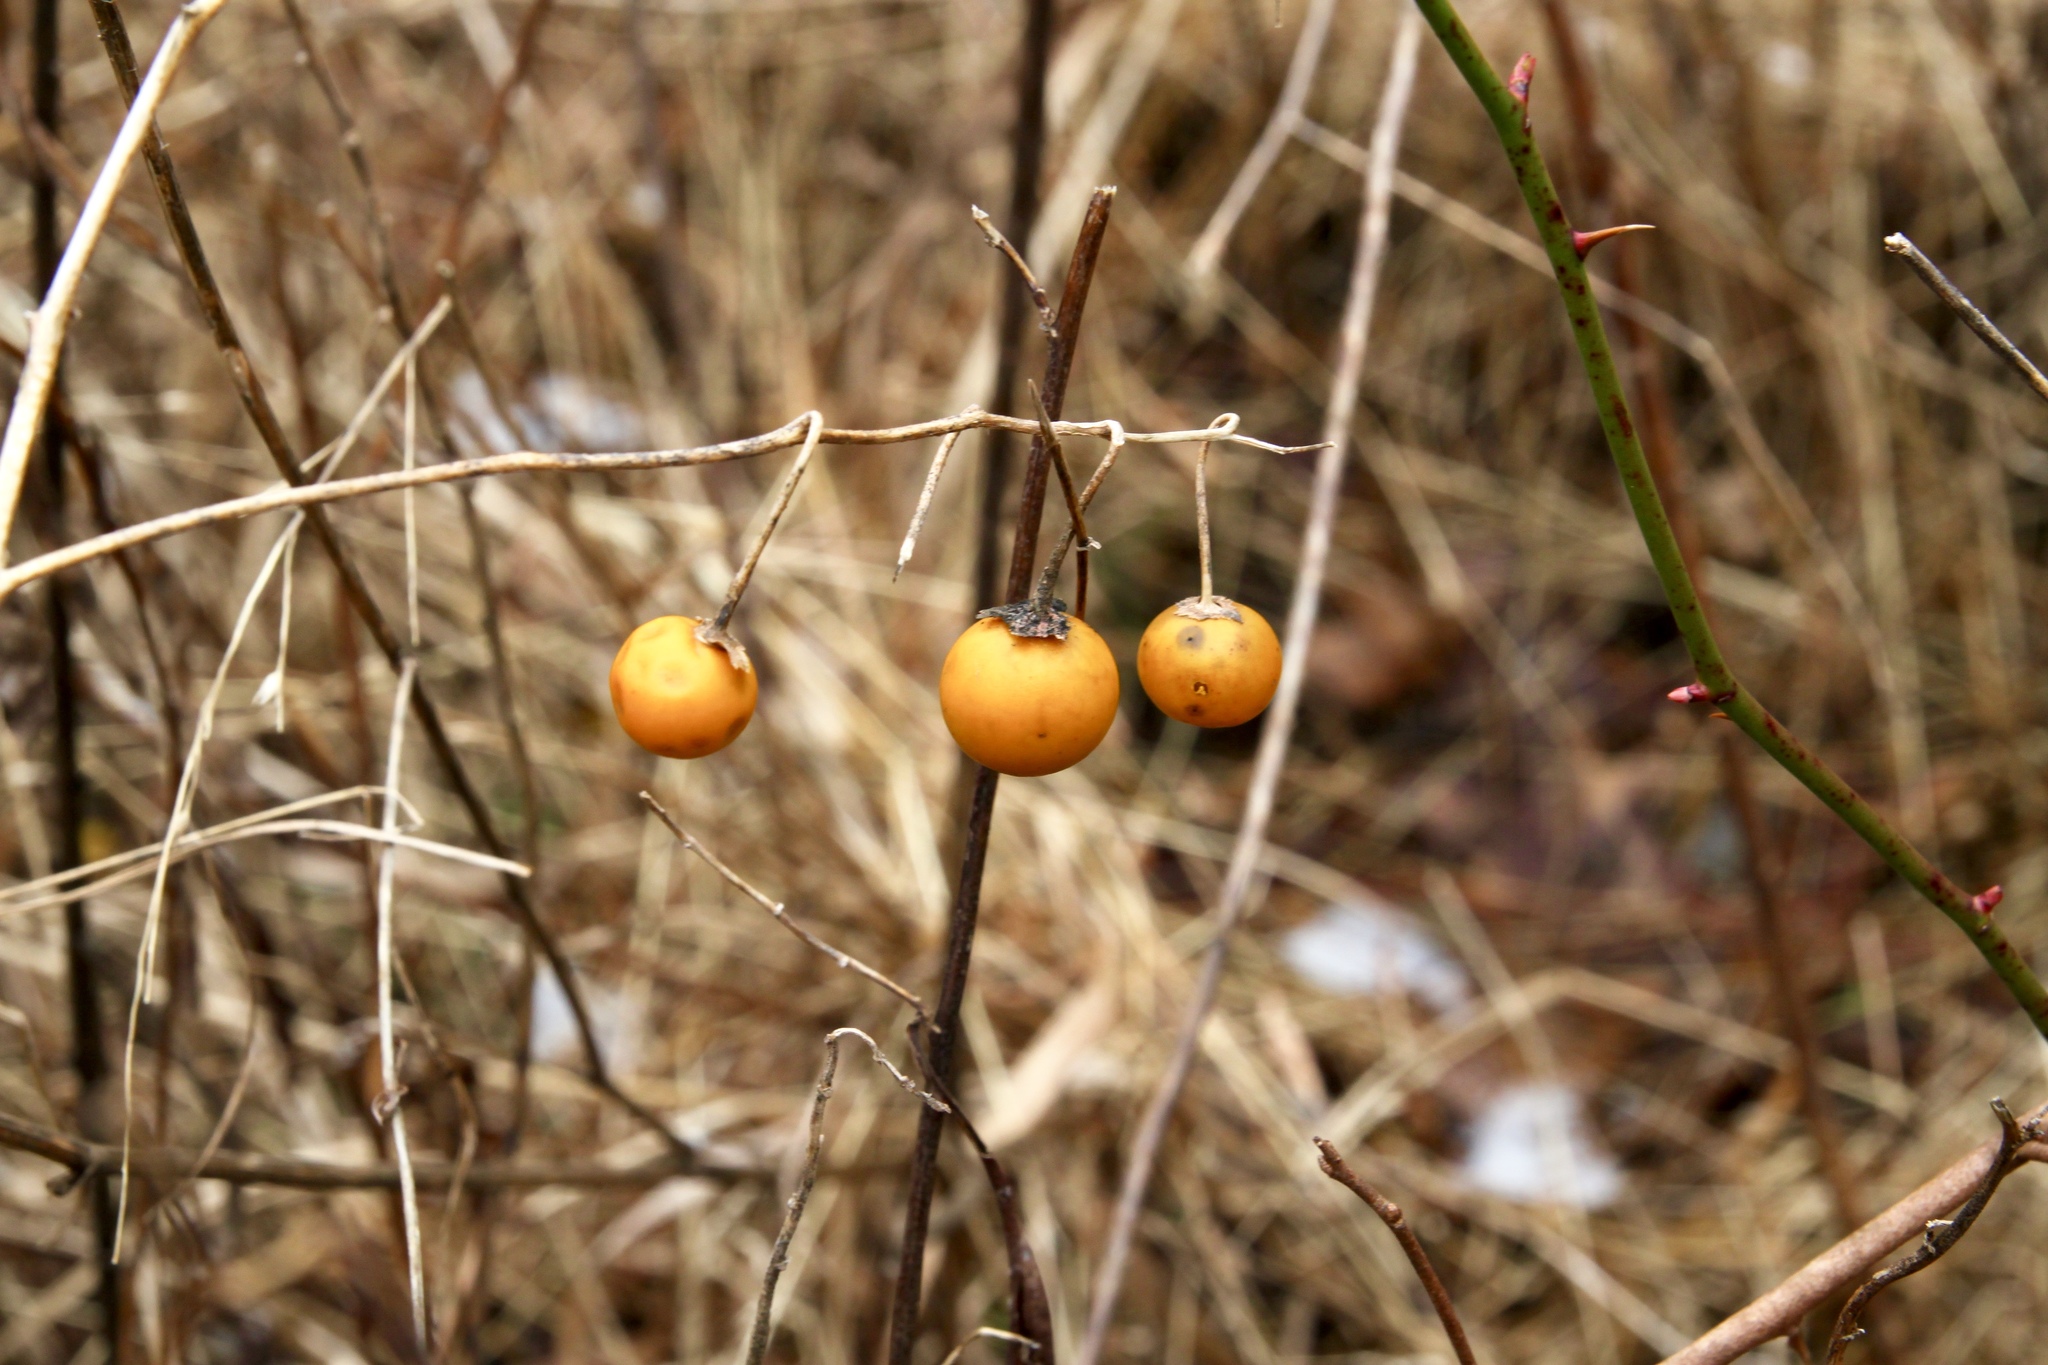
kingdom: Plantae
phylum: Tracheophyta
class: Magnoliopsida
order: Solanales
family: Solanaceae
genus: Solanum
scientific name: Solanum carolinense
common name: Horse-nettle
